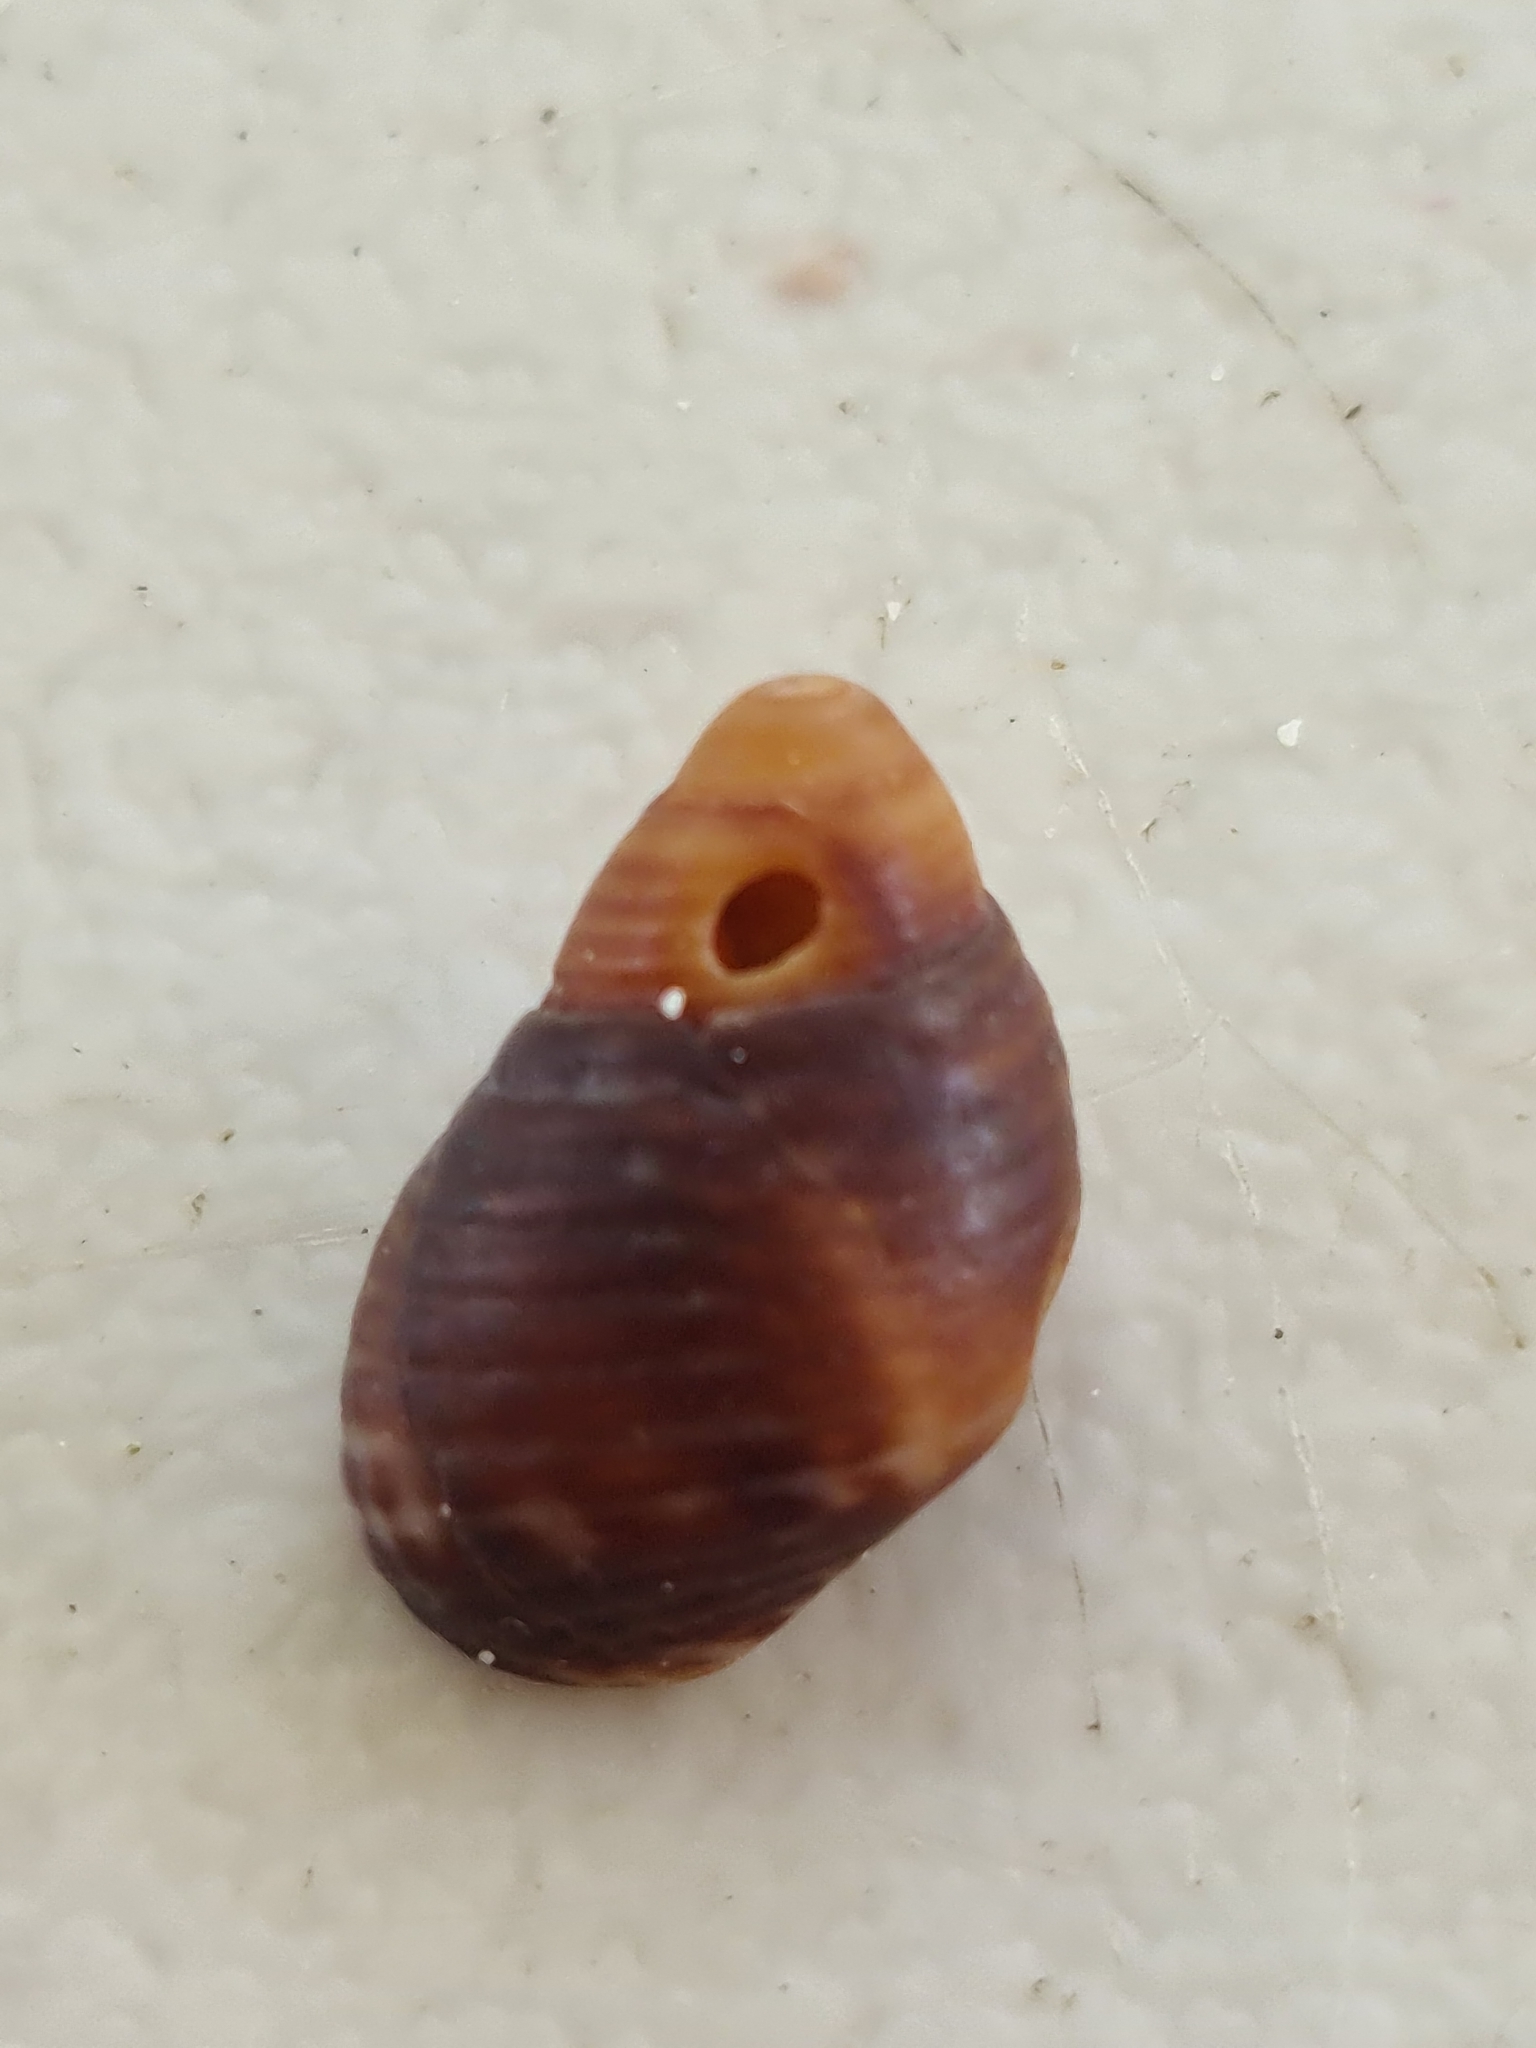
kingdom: Animalia
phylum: Mollusca
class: Gastropoda
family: Planaxidae
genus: Planaxis
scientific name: Planaxis sulcatus
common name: Furrowed planaxis
